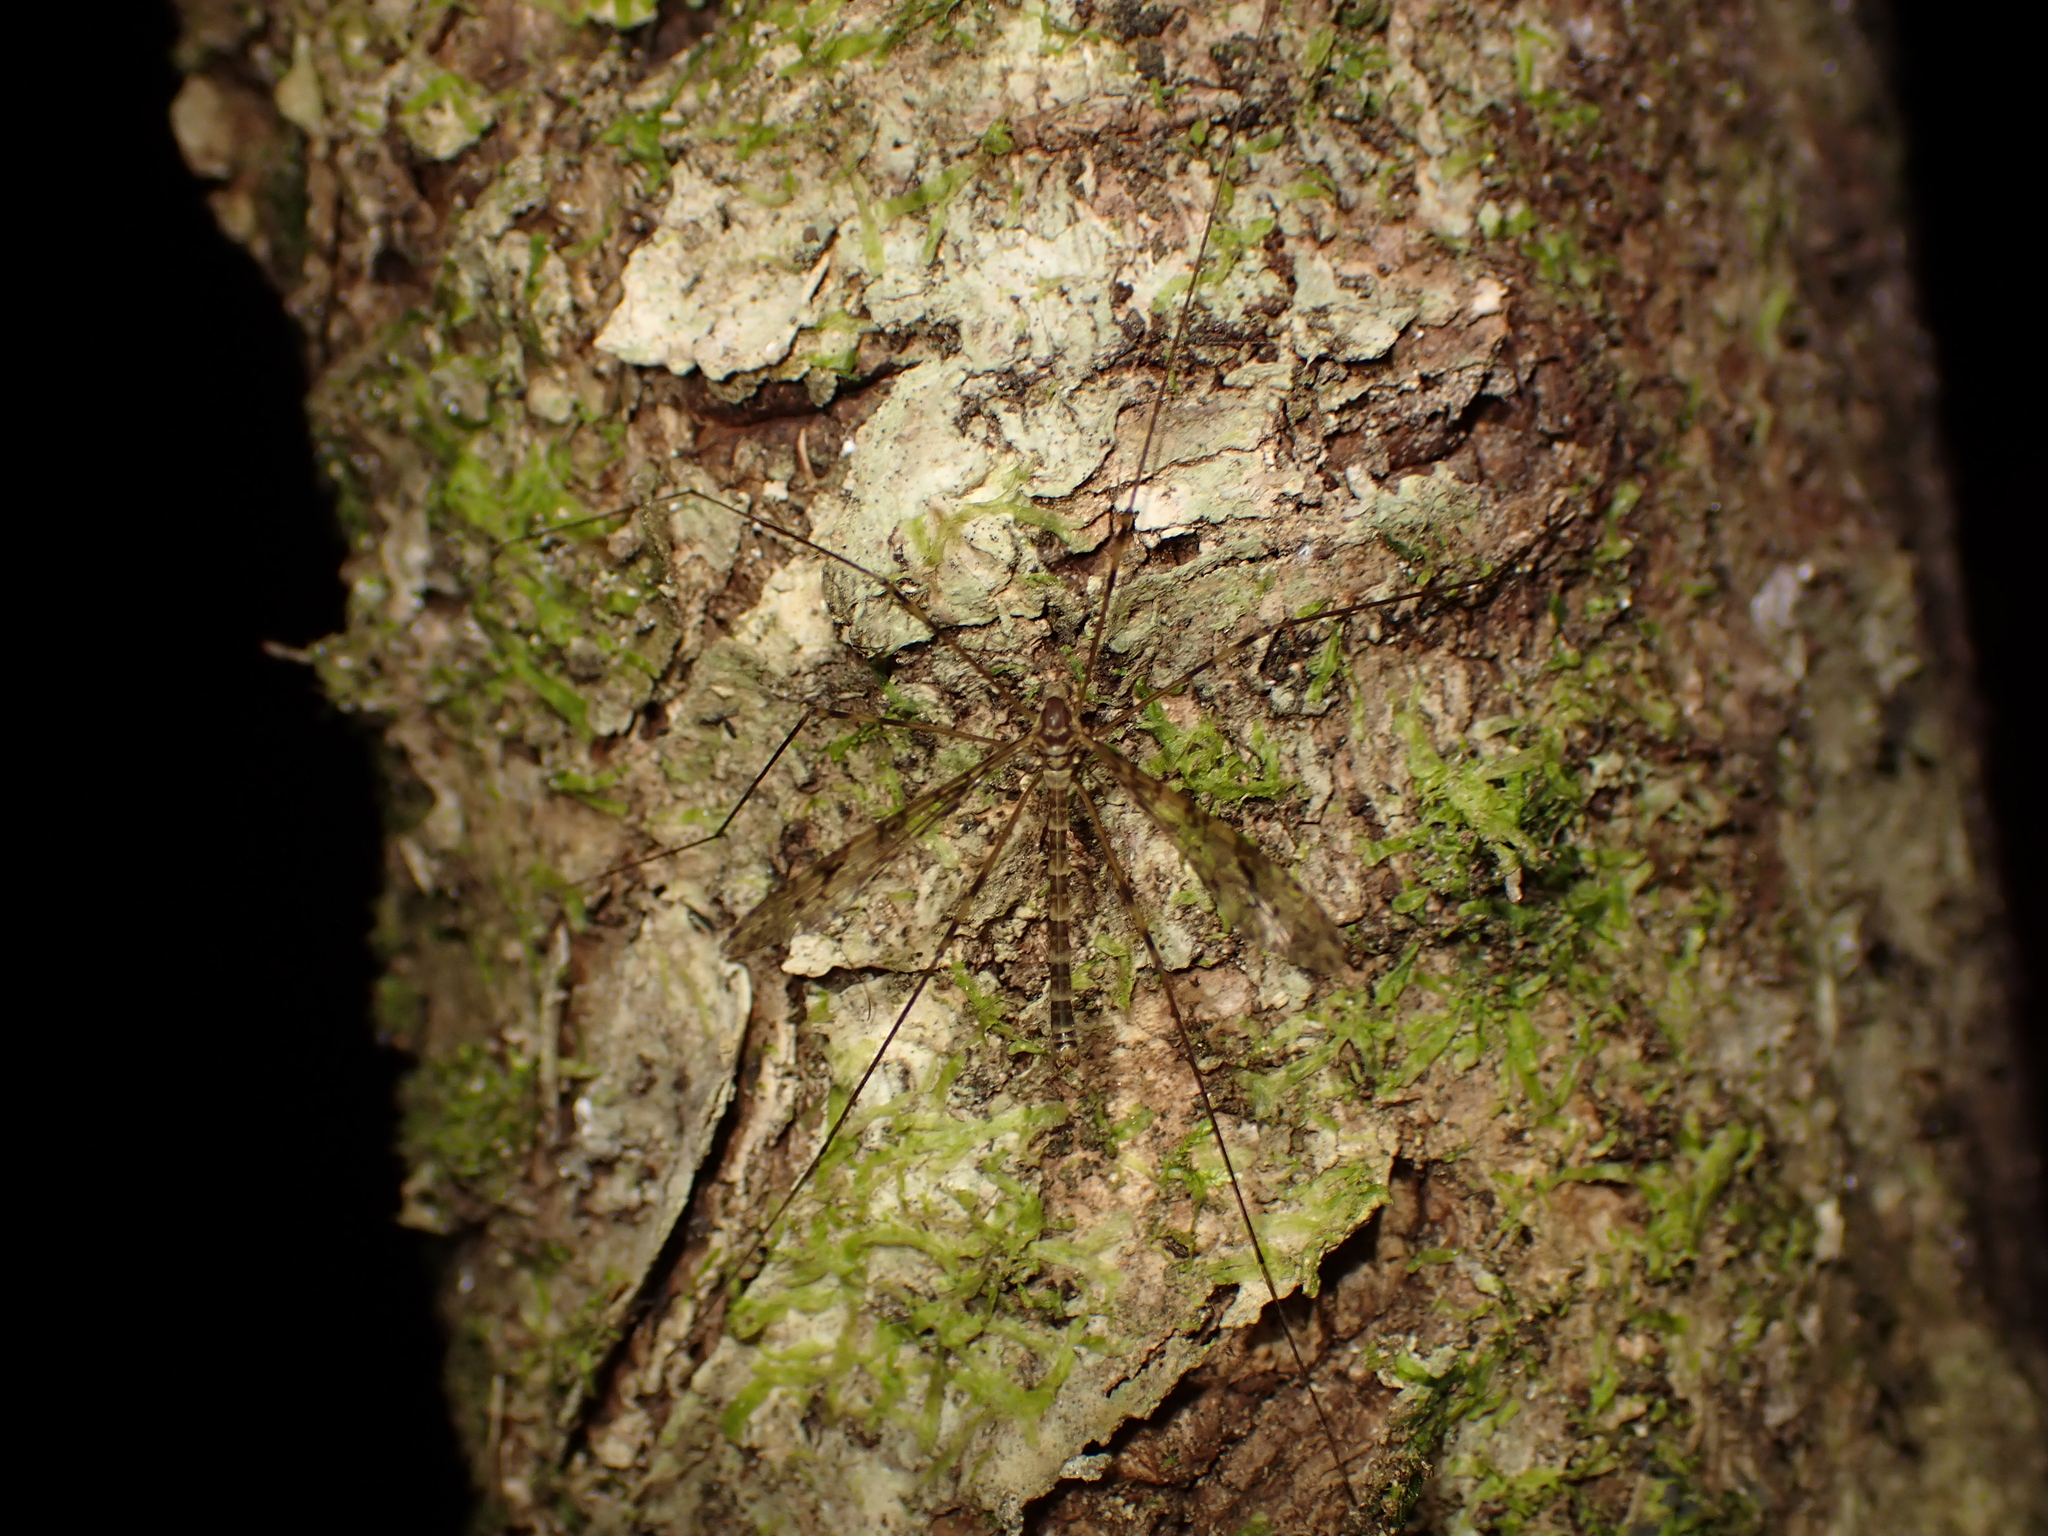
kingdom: Animalia
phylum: Arthropoda
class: Insecta
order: Diptera
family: Limoniidae
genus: Austrolimnophila
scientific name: Austrolimnophila argus
